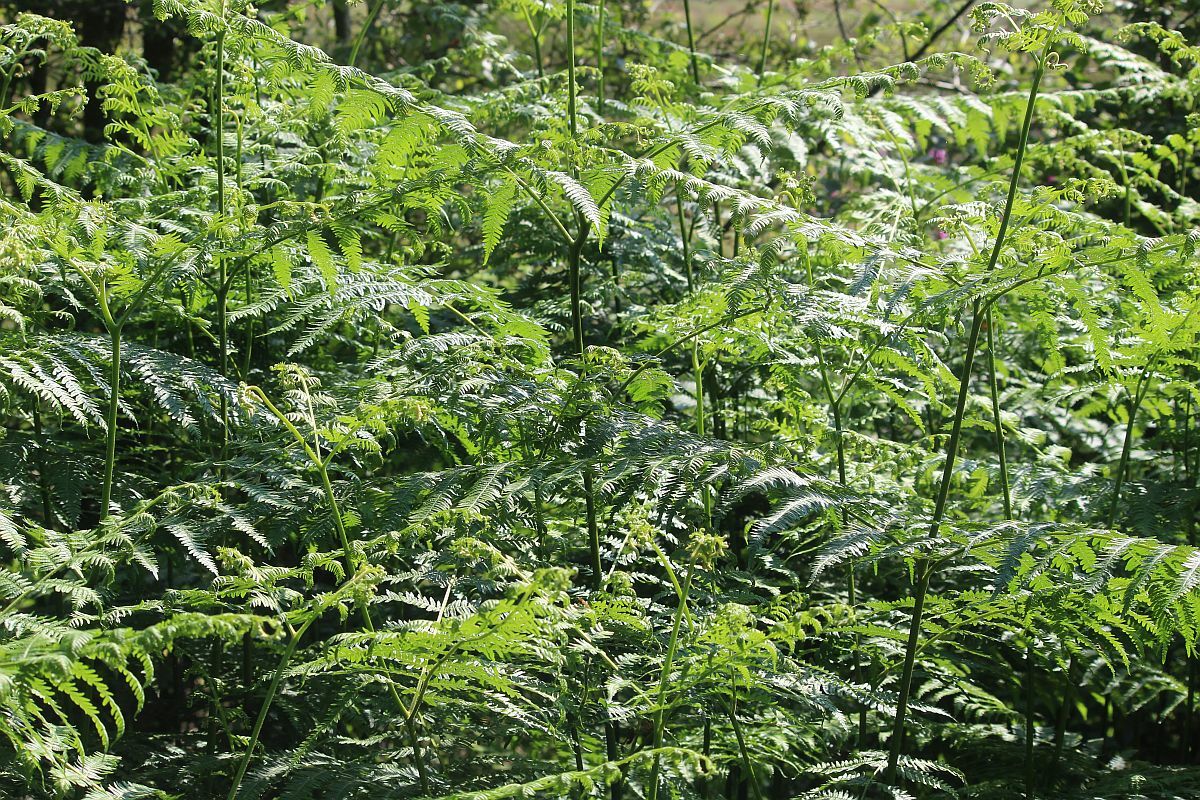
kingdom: Plantae
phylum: Tracheophyta
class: Polypodiopsida
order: Polypodiales
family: Dennstaedtiaceae
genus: Pteridium
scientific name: Pteridium aquilinum
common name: Bracken
